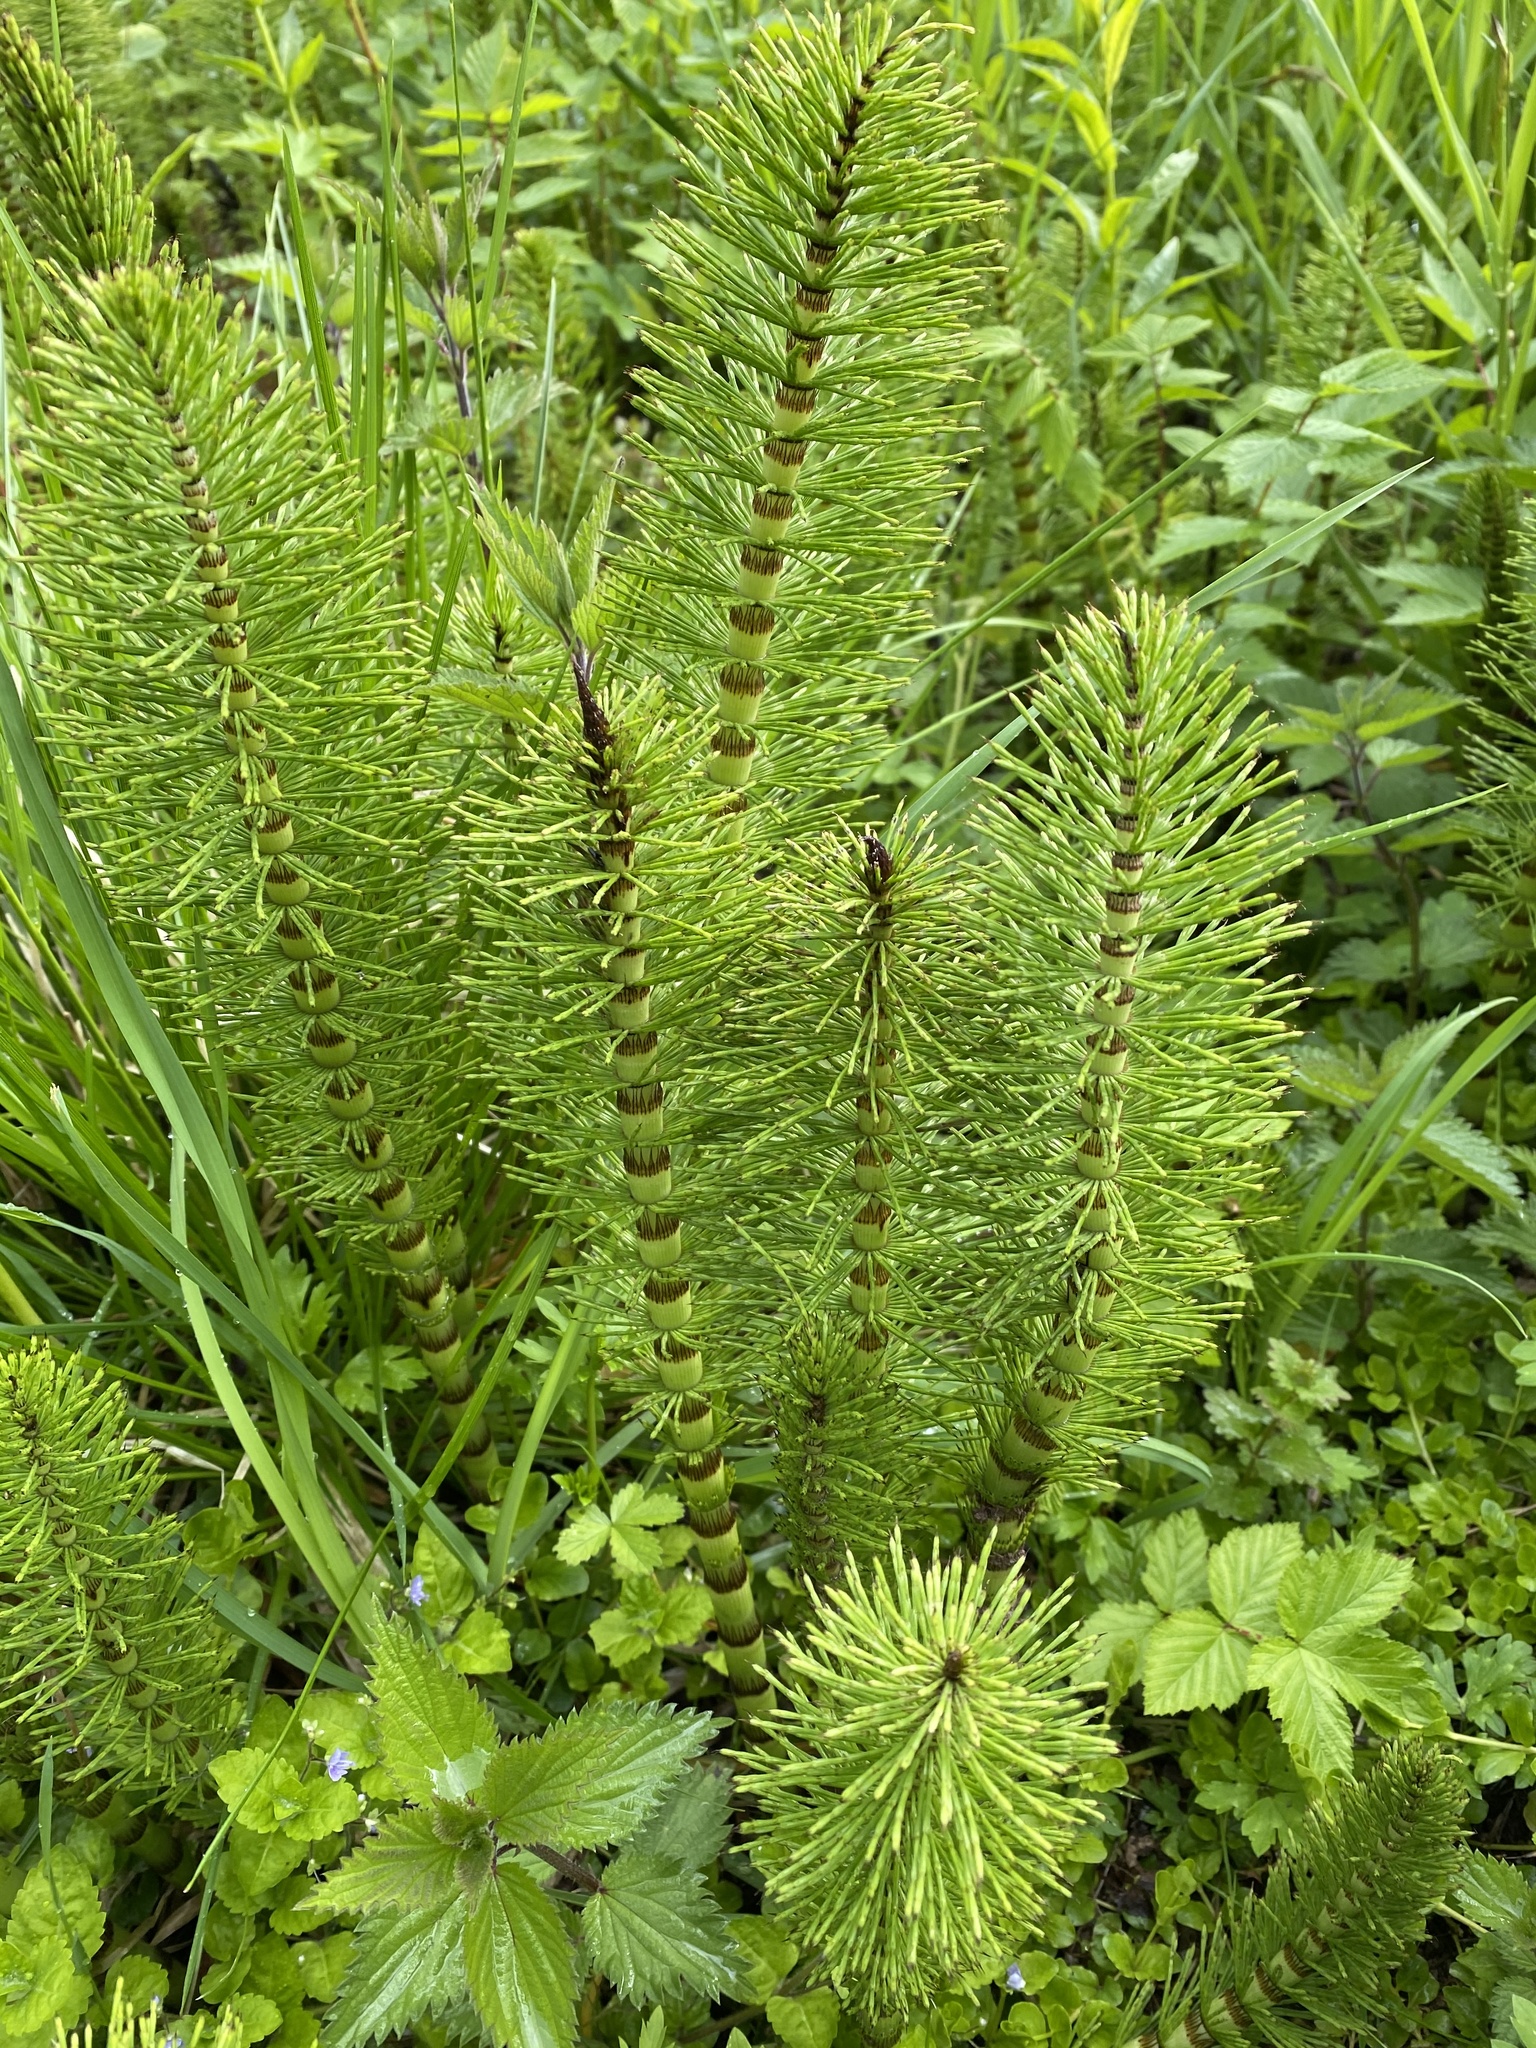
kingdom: Plantae
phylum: Tracheophyta
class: Polypodiopsida
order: Equisetales
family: Equisetaceae
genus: Equisetum
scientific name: Equisetum telmateia
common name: Great horsetail
